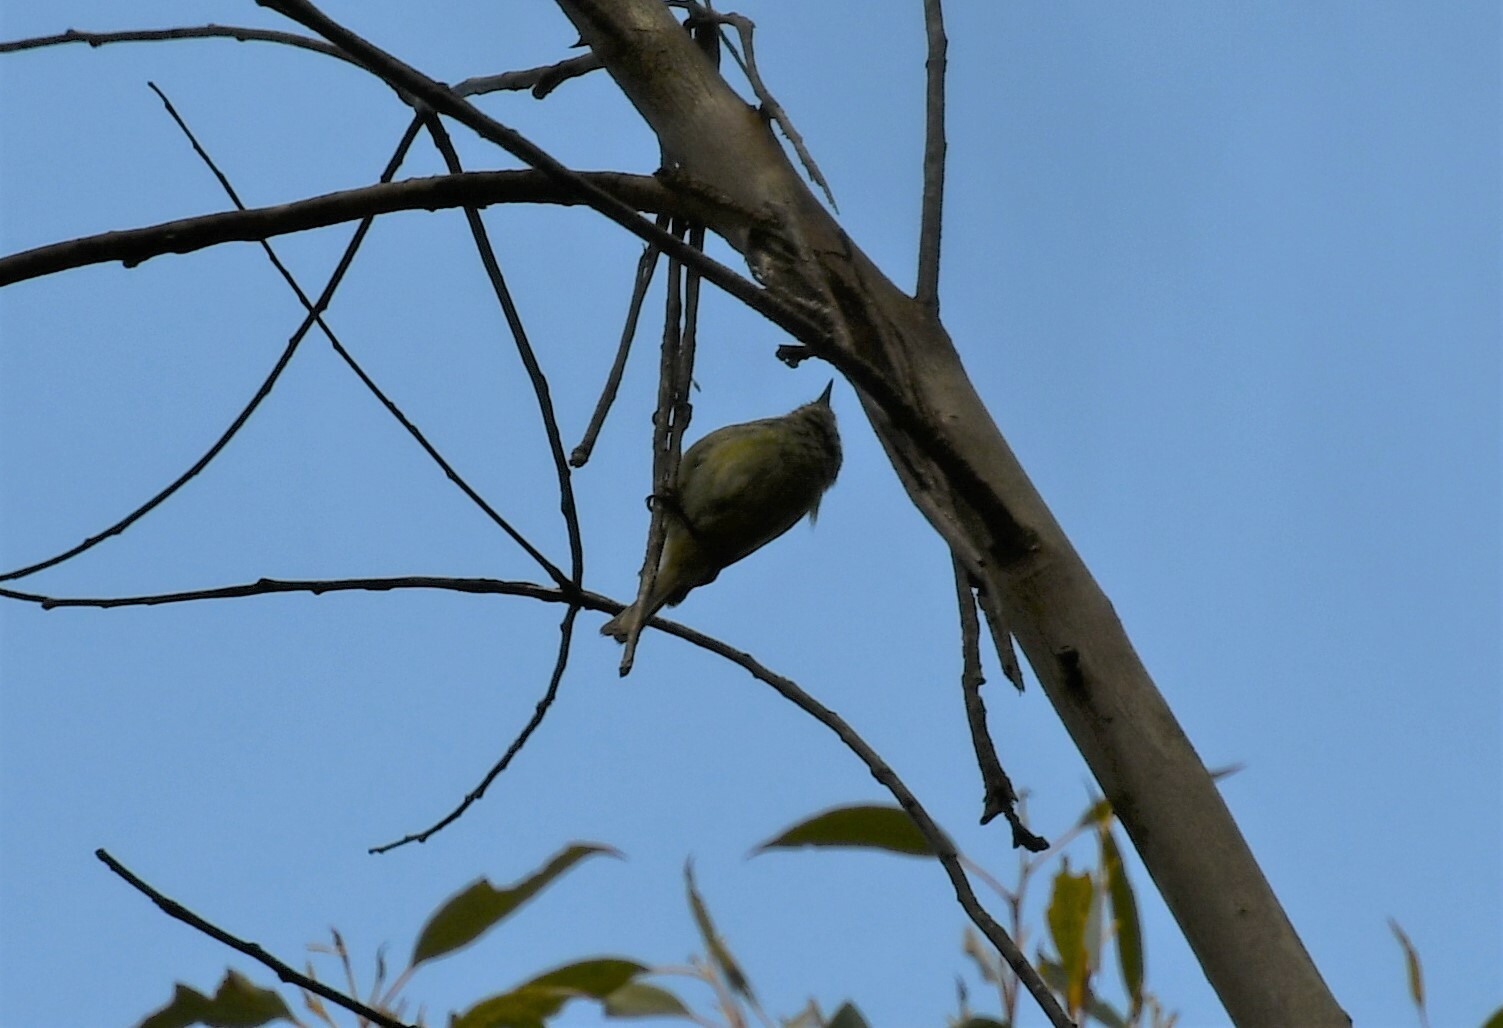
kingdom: Animalia
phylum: Chordata
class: Aves
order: Passeriformes
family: Acanthizidae
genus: Acanthiza
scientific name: Acanthiza pusilla
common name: Brown thornbill
